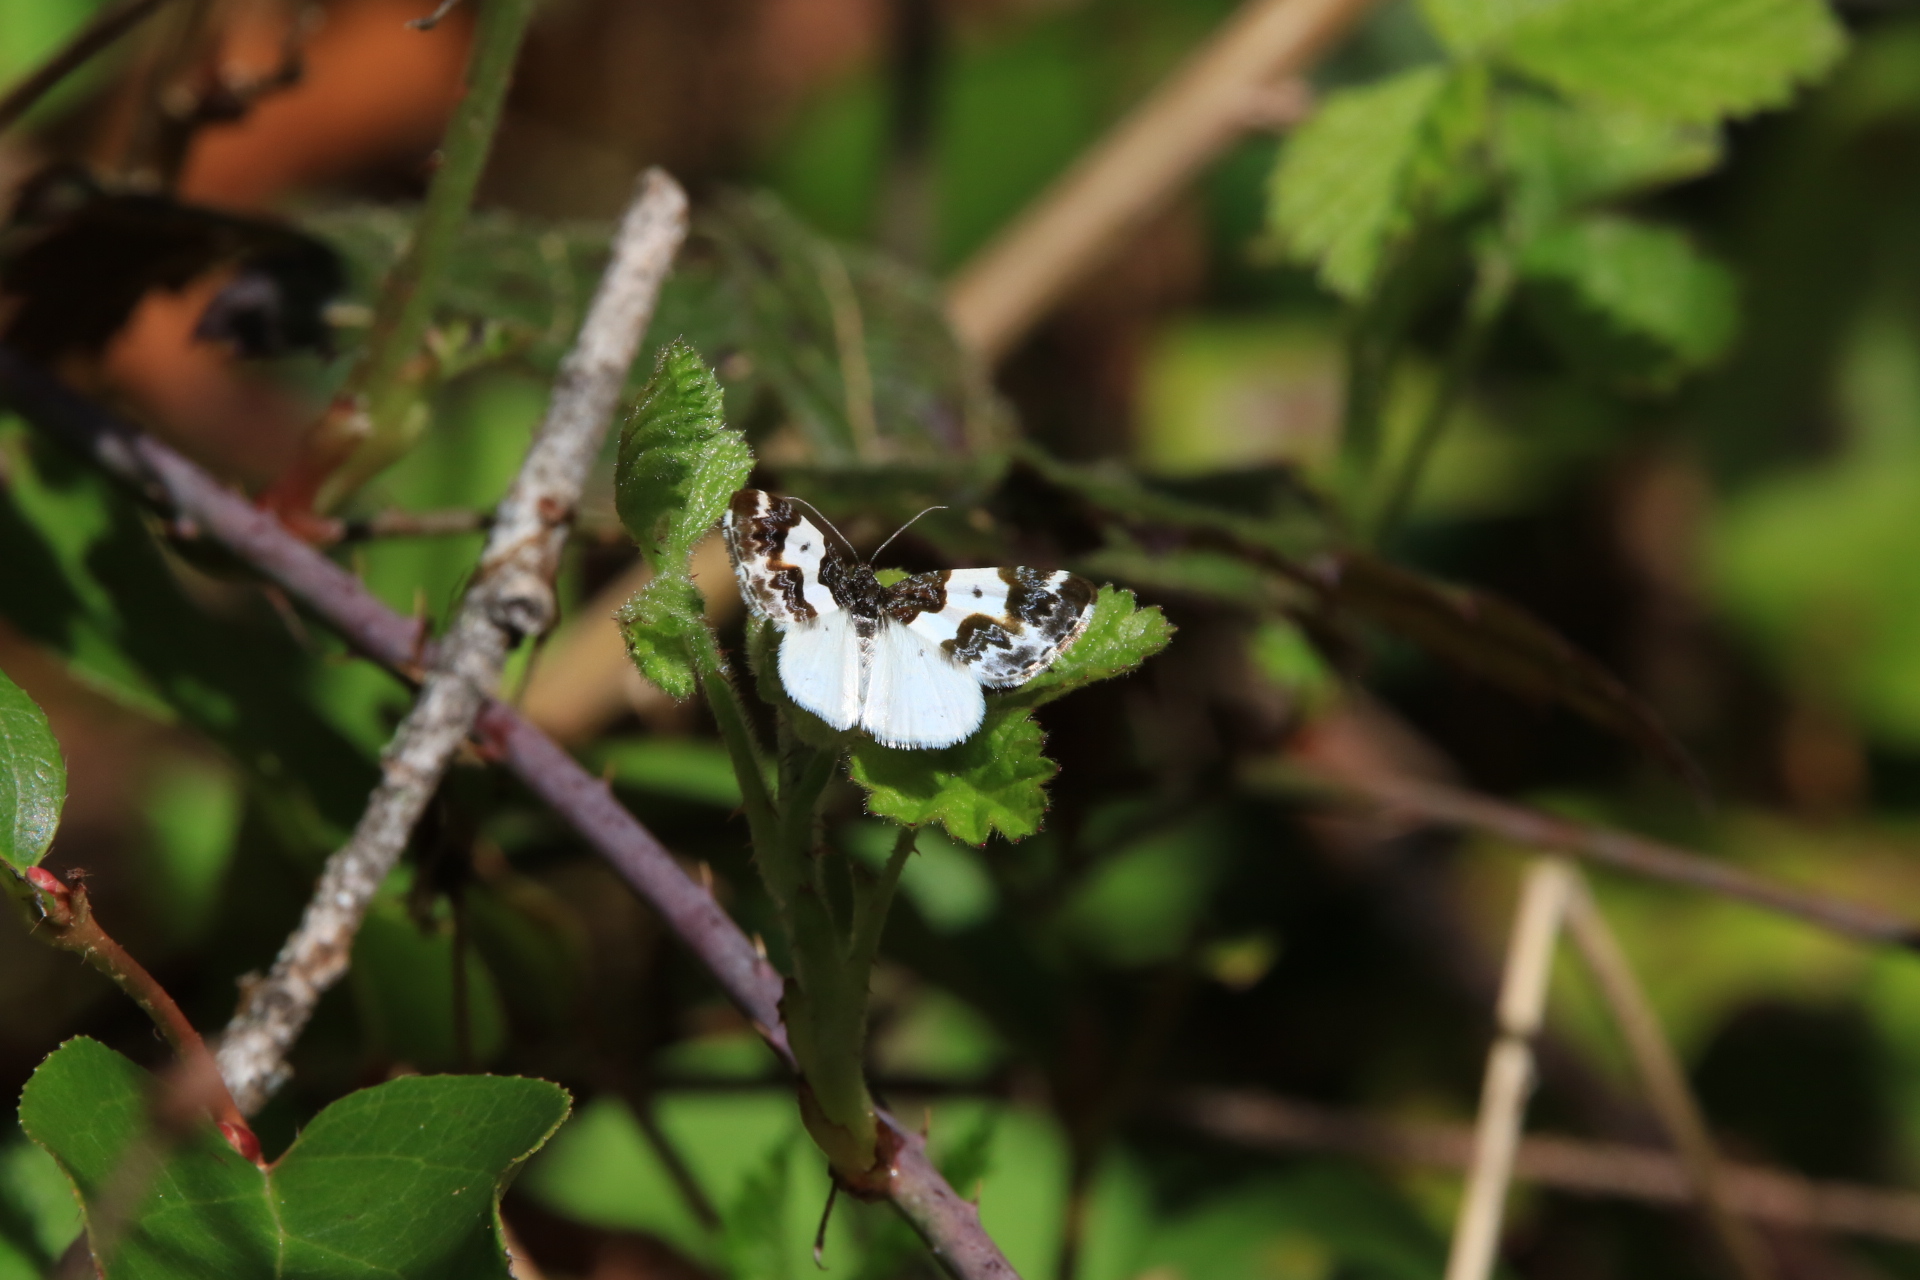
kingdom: Animalia
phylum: Arthropoda
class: Insecta
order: Lepidoptera
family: Geometridae
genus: Mesoleuca
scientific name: Mesoleuca gratulata
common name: Half-white carpet moth
